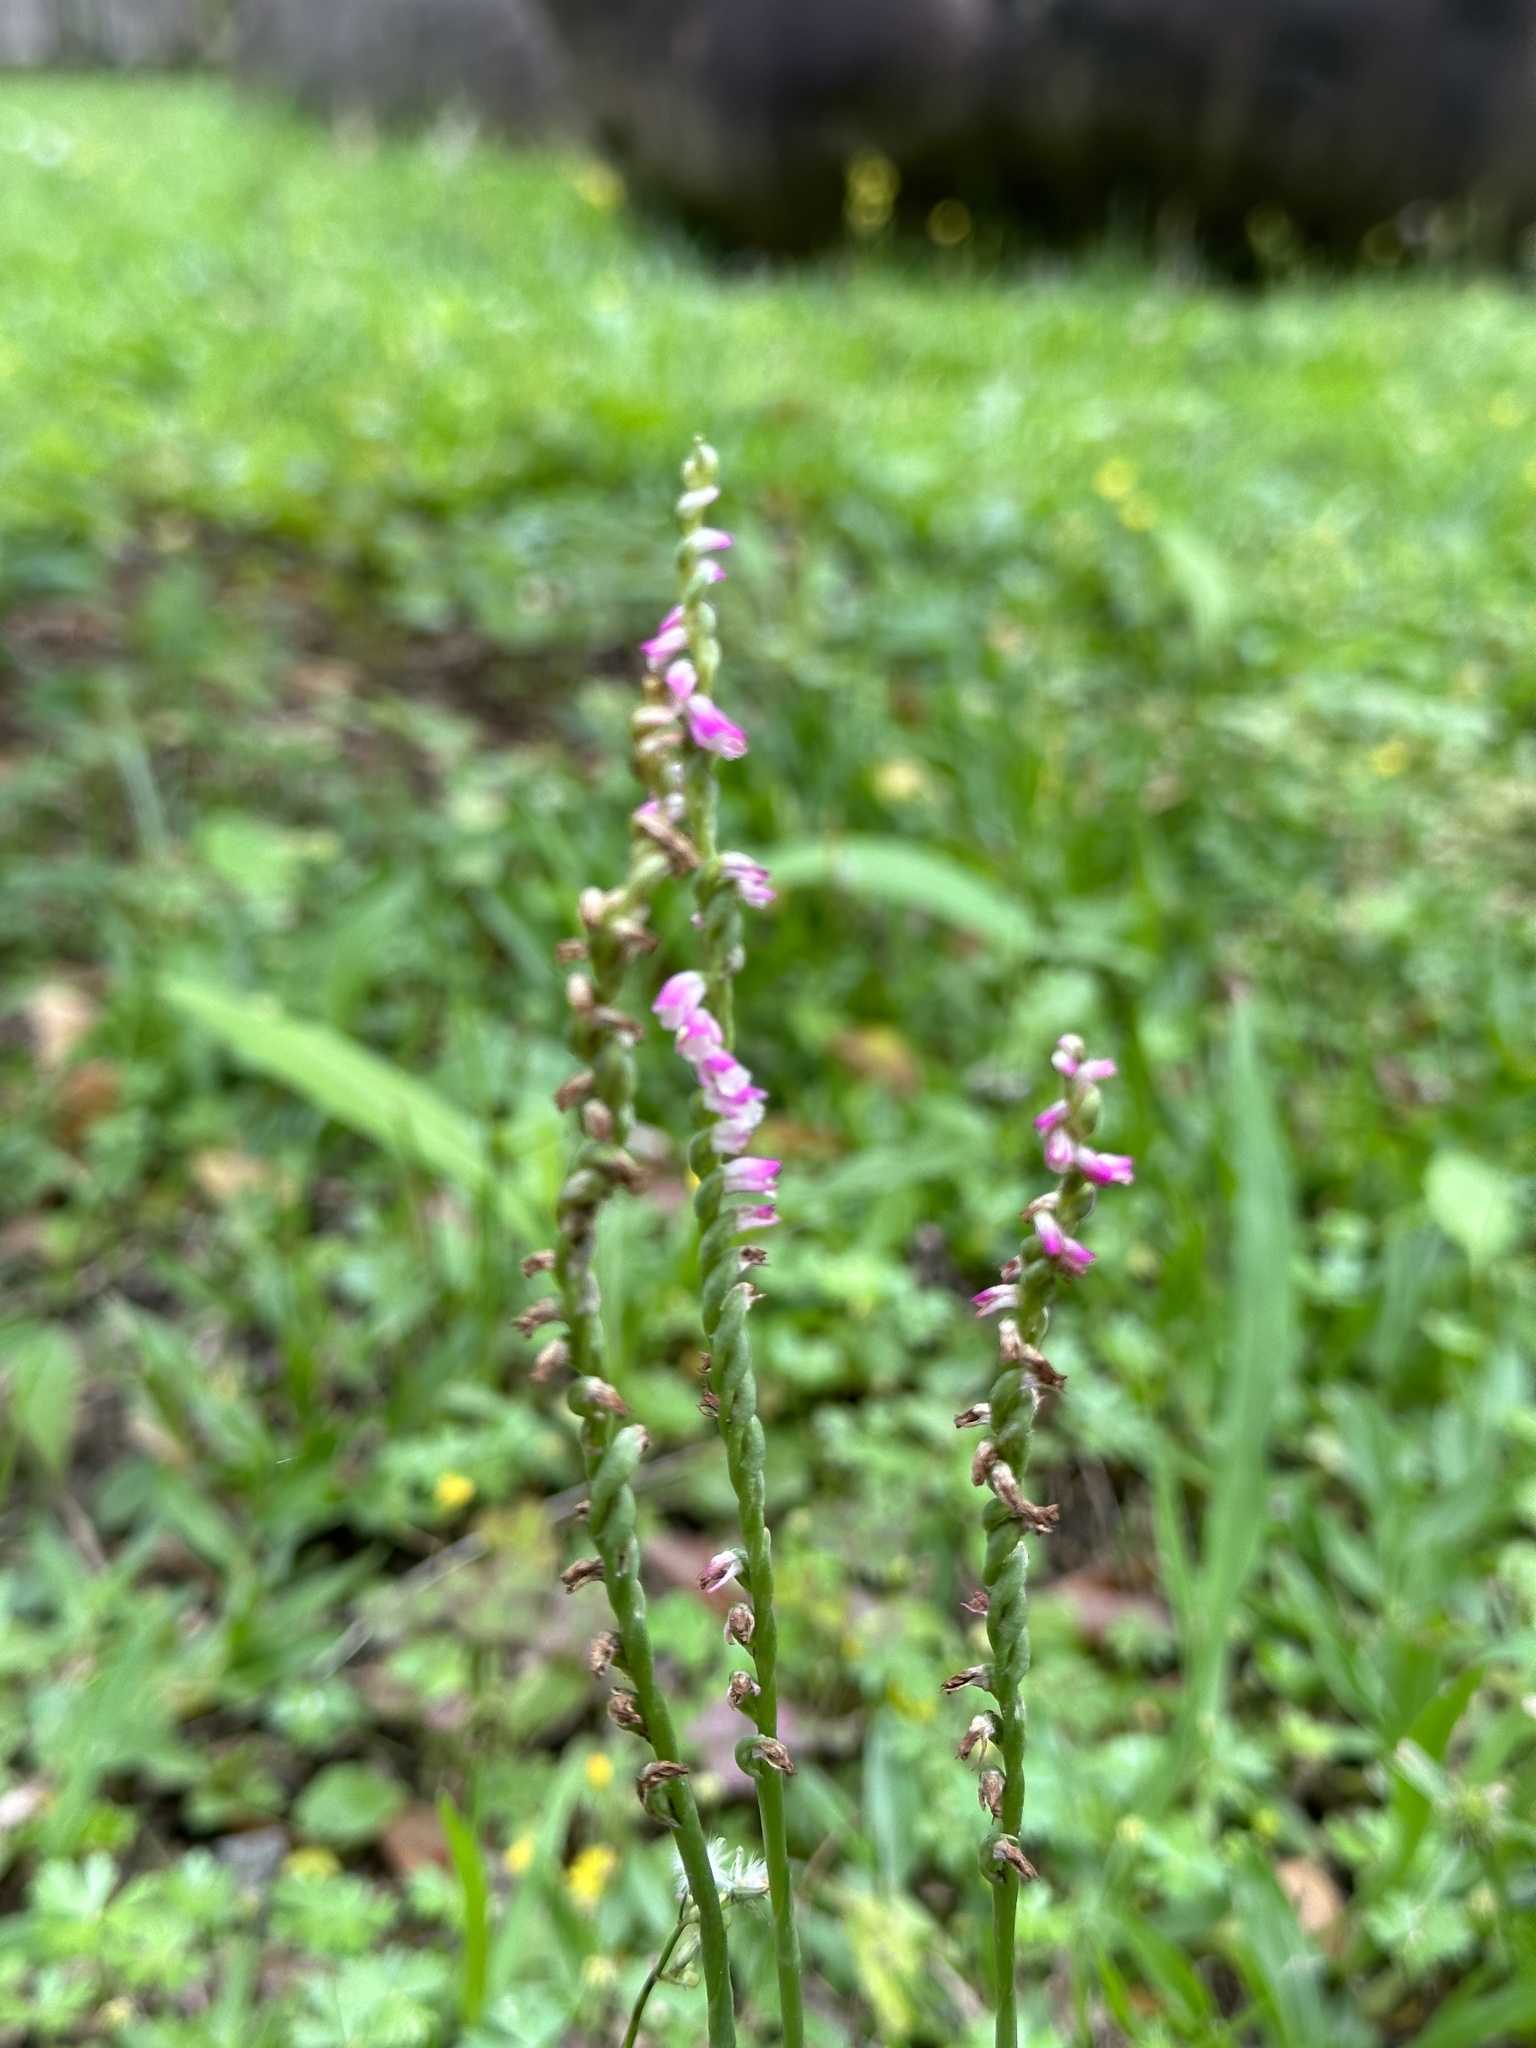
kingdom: Plantae
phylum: Tracheophyta
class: Liliopsida
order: Asparagales
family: Orchidaceae
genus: Spiranthes
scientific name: Spiranthes sinensis
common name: Chinese spiranthes
